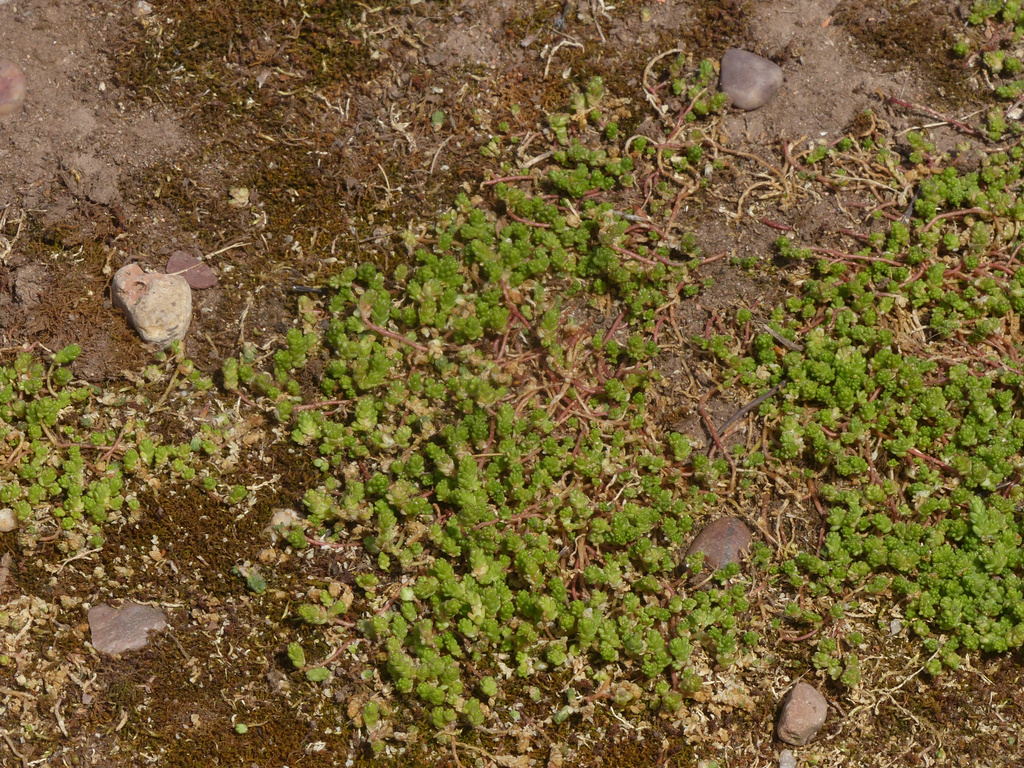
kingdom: Plantae
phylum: Tracheophyta
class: Magnoliopsida
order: Saxifragales
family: Crassulaceae
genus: Sedum
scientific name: Sedum acre
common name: Biting stonecrop
